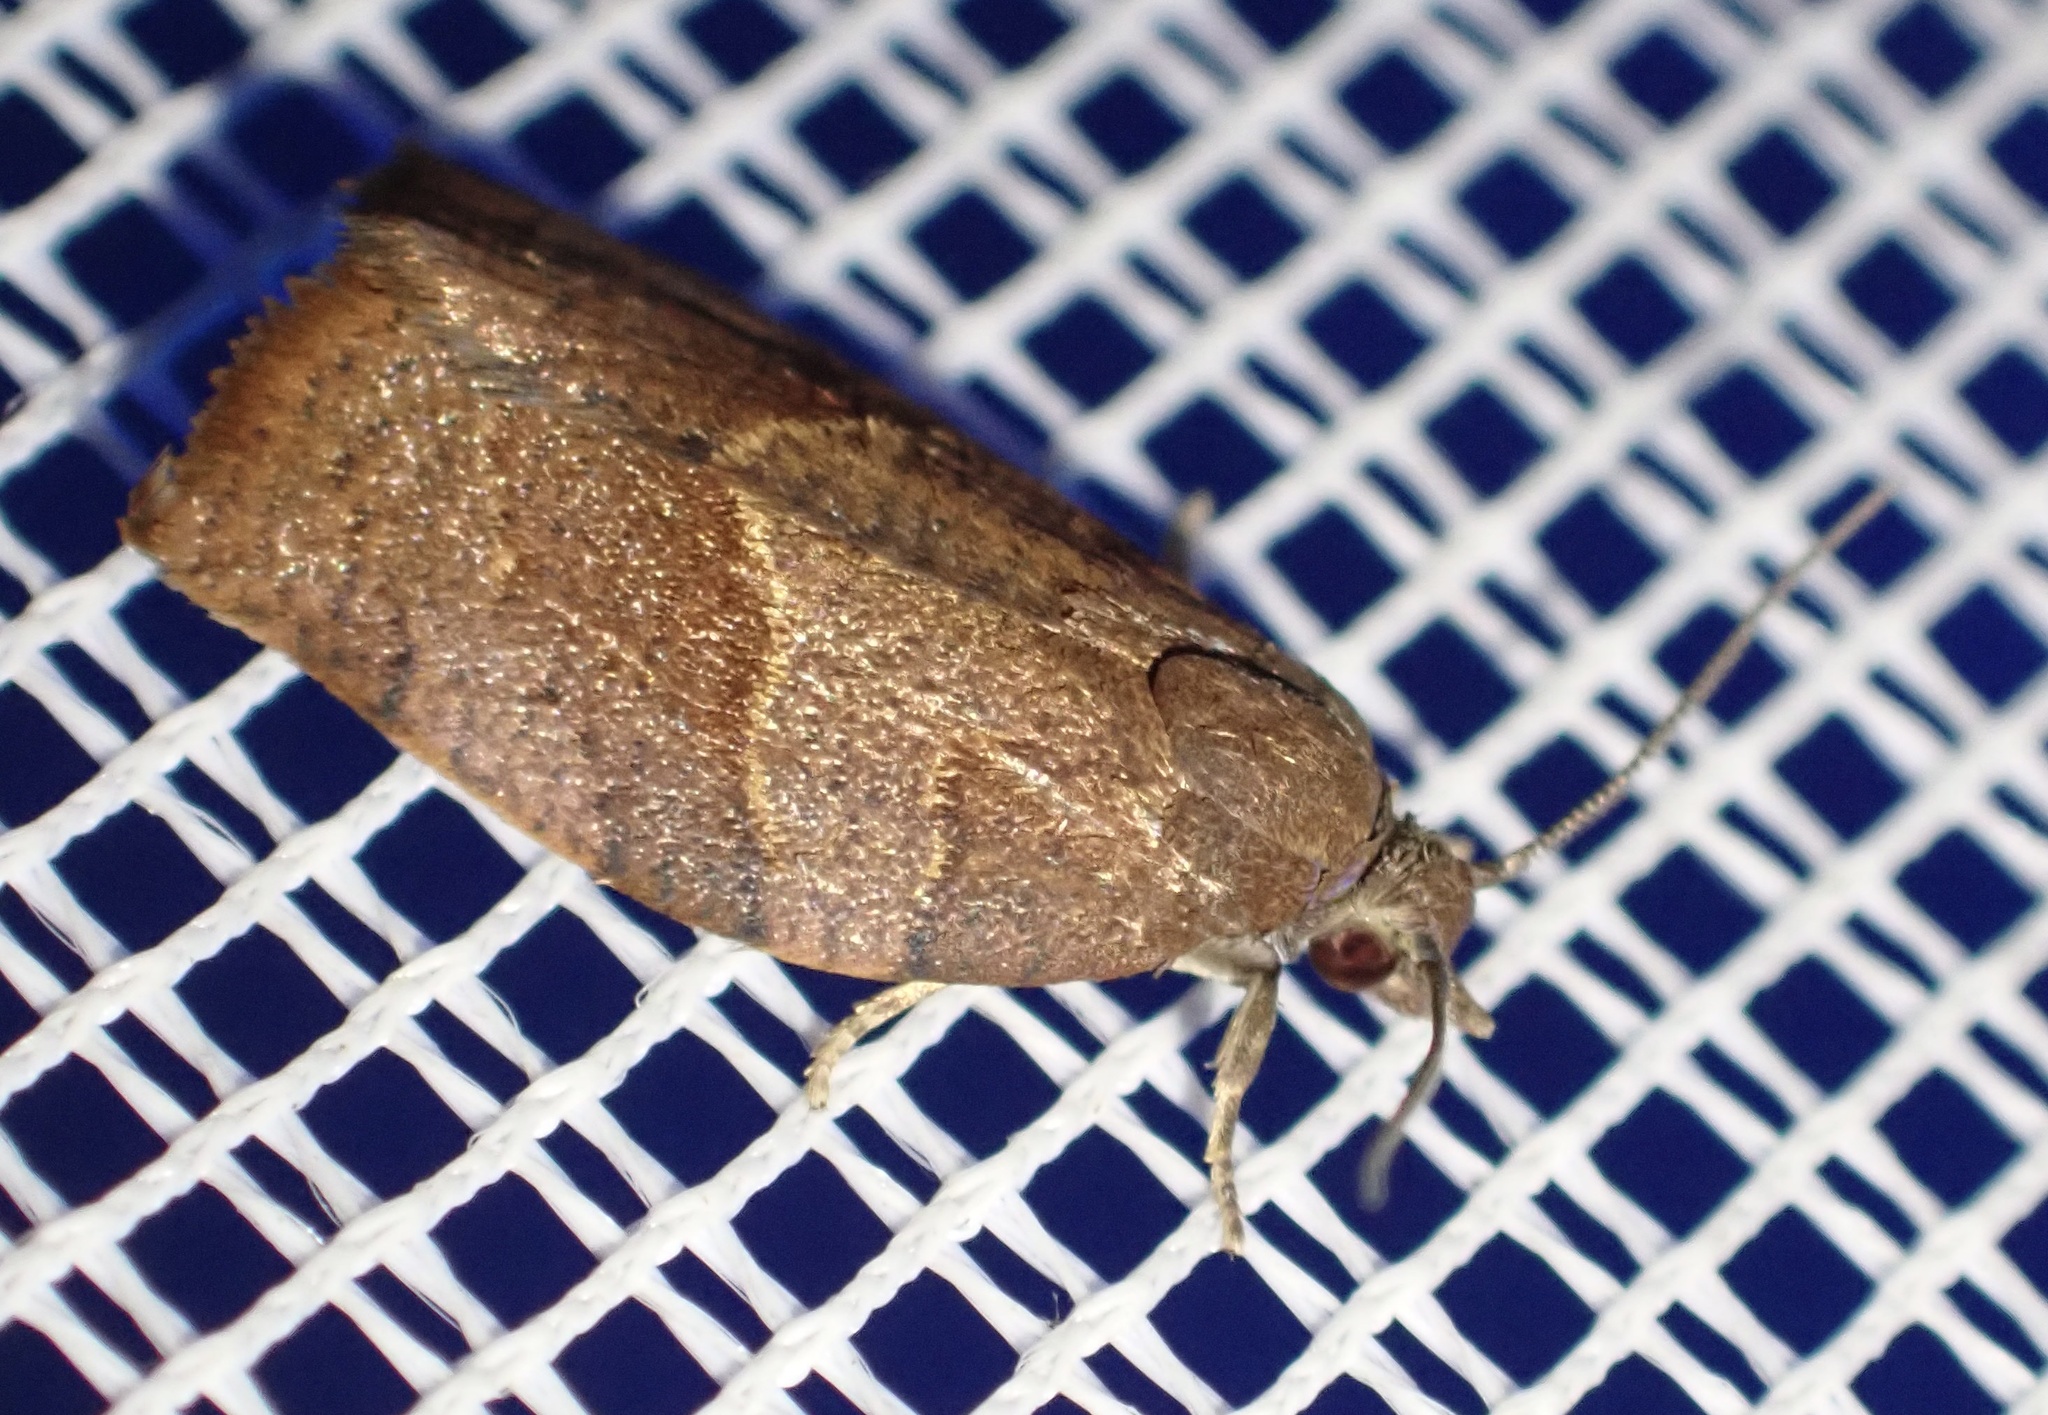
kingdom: Animalia
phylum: Arthropoda
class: Insecta
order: Lepidoptera
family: Tortricidae
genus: Pandemis
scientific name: Pandemis heparana
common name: Dark fruit-tree tortrix
